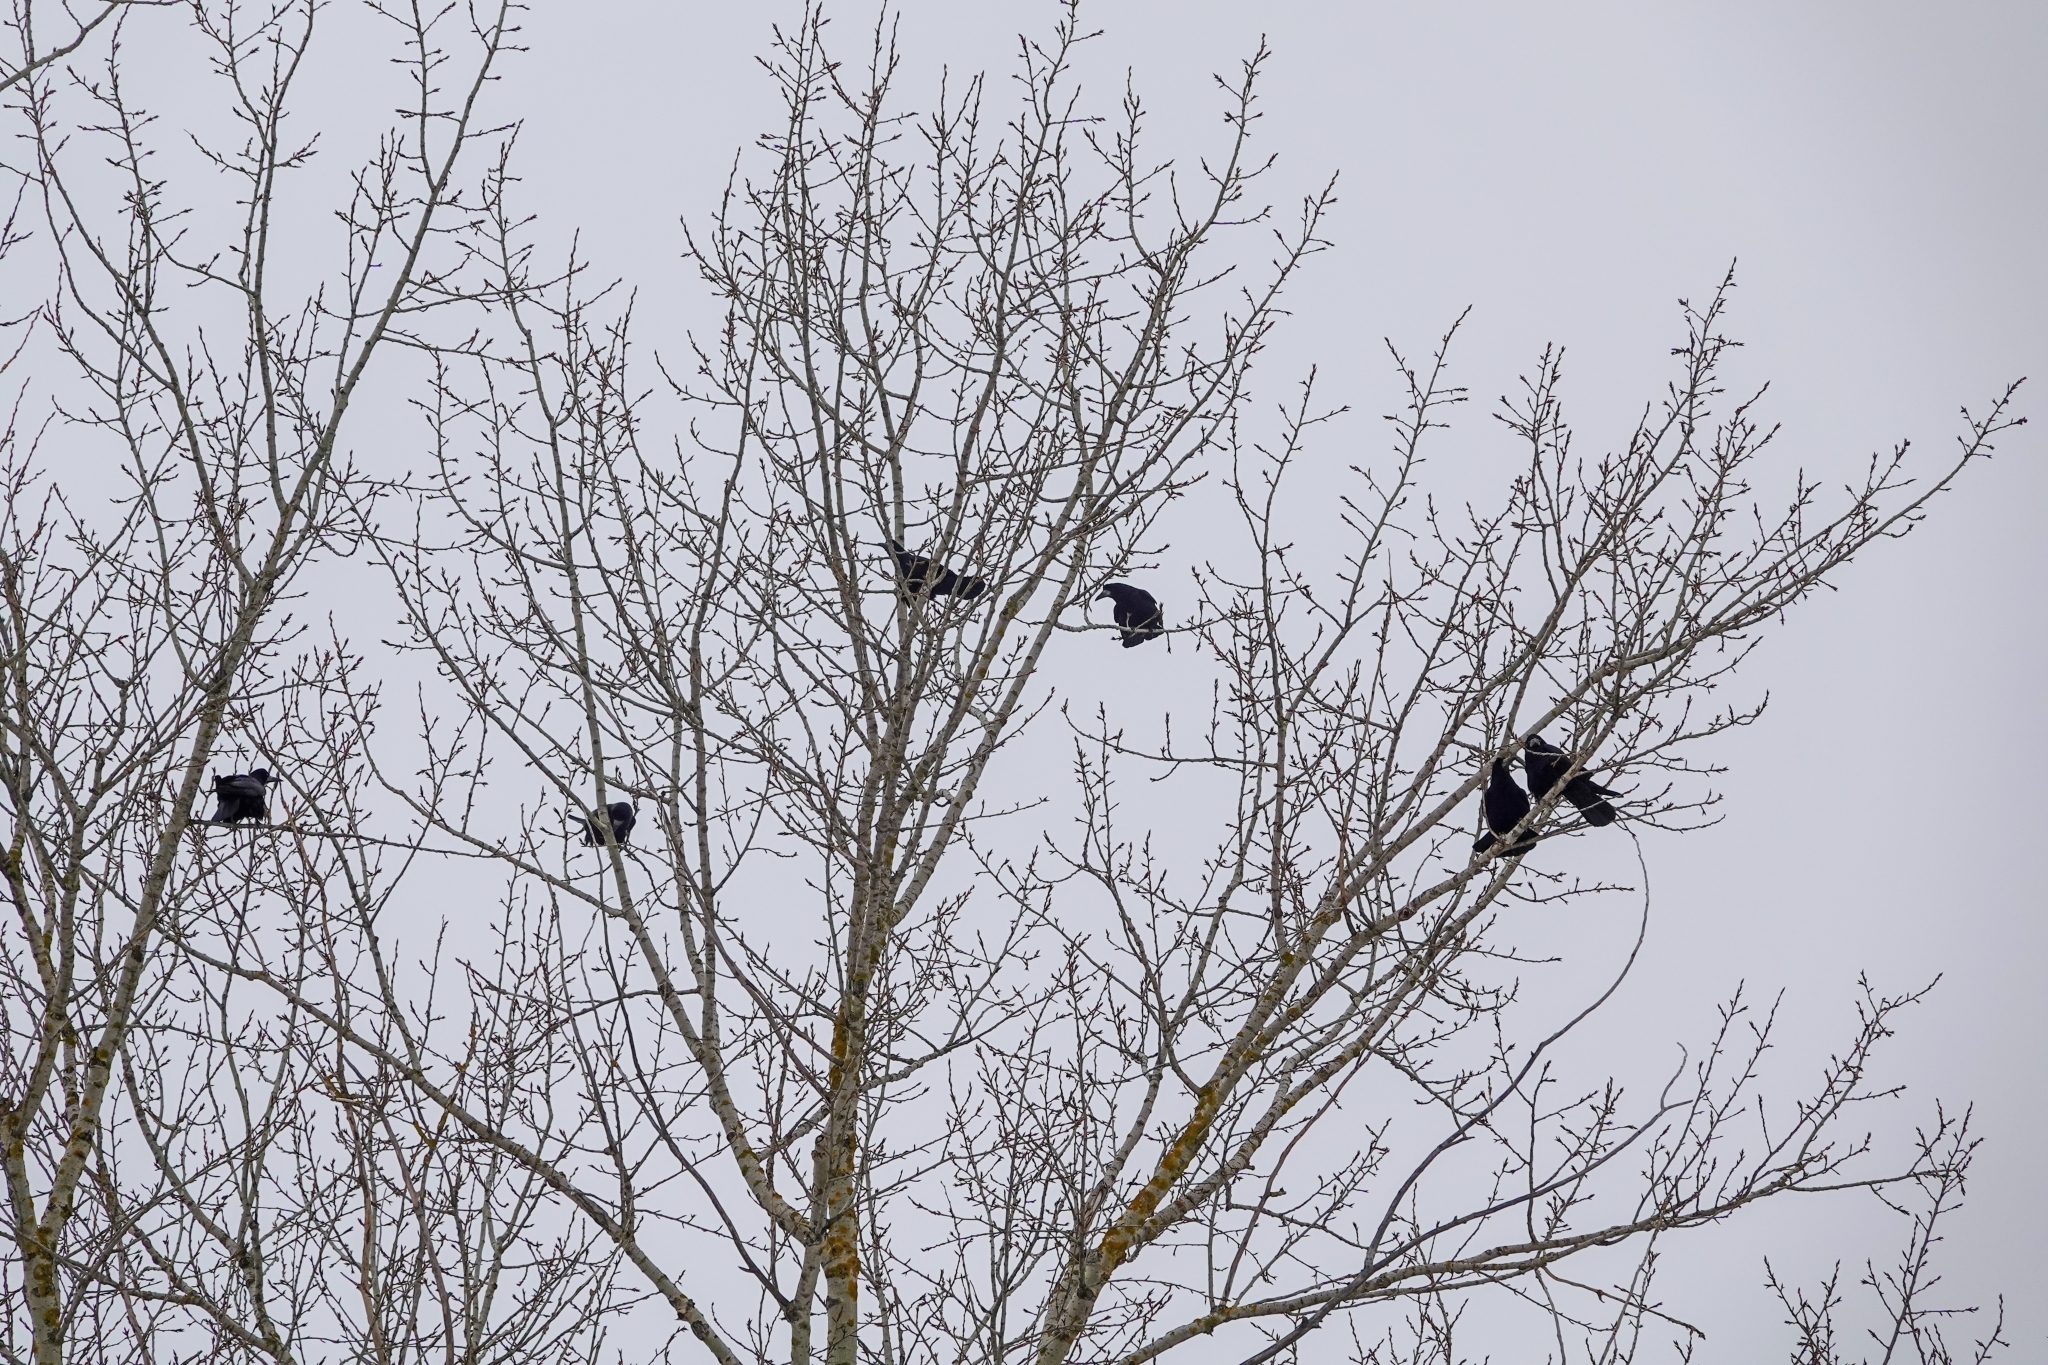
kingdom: Animalia
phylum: Chordata
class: Aves
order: Passeriformes
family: Corvidae
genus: Corvus
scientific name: Corvus frugilegus
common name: Rook
